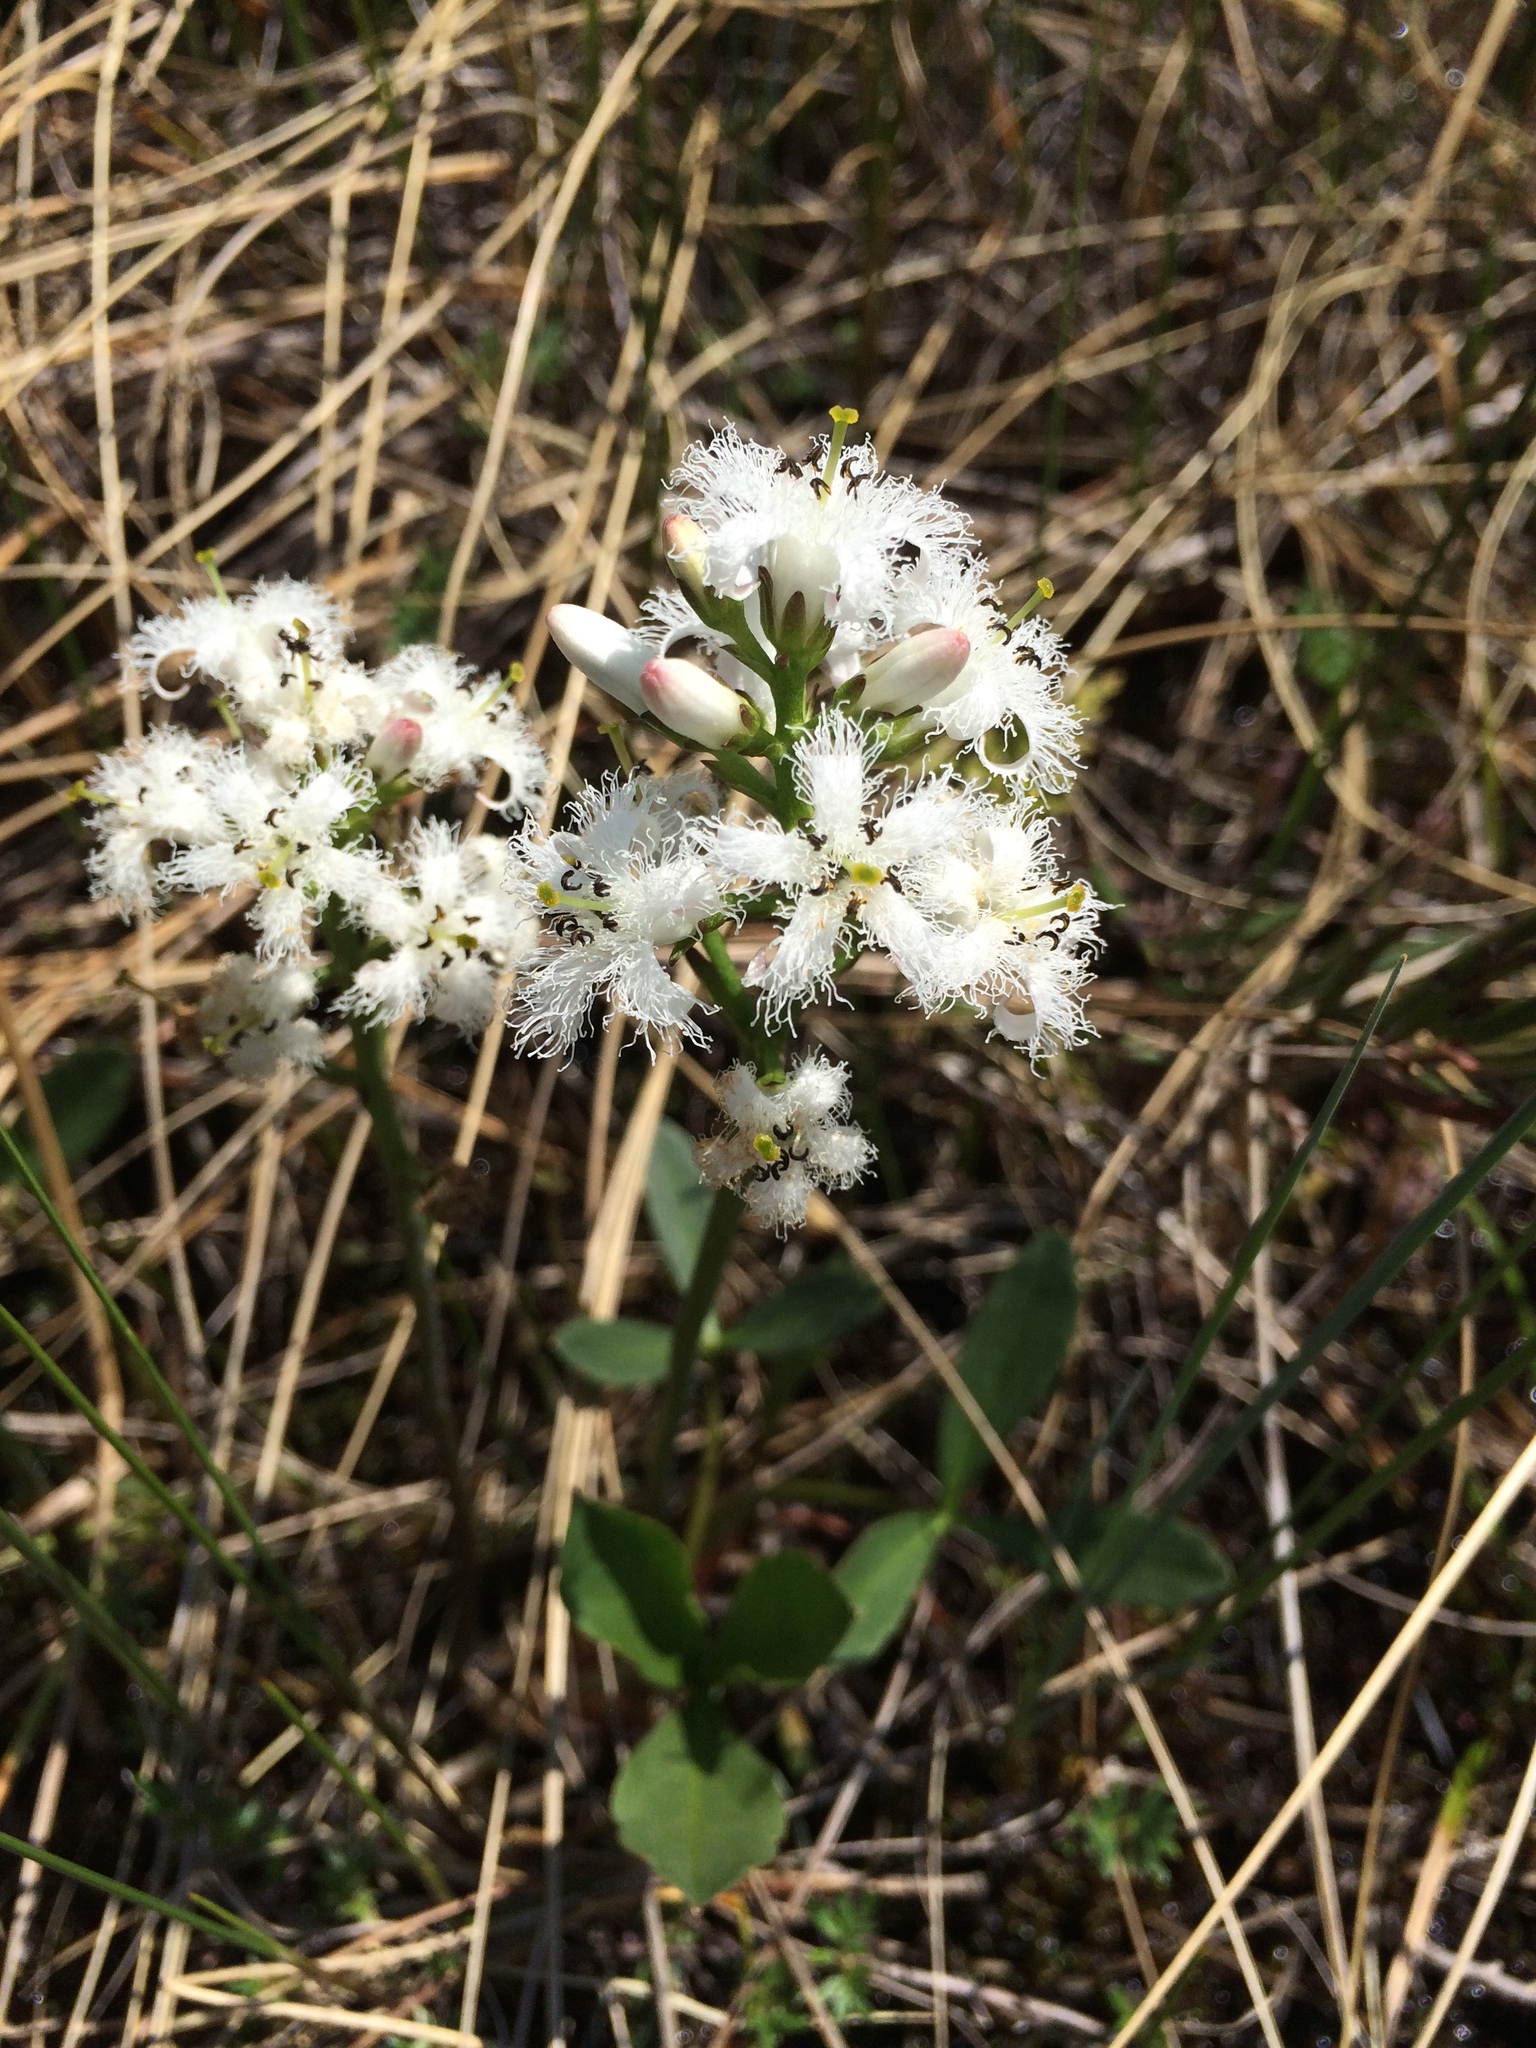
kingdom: Plantae
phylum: Tracheophyta
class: Magnoliopsida
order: Asterales
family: Menyanthaceae
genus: Menyanthes
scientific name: Menyanthes trifoliata
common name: Bogbean
